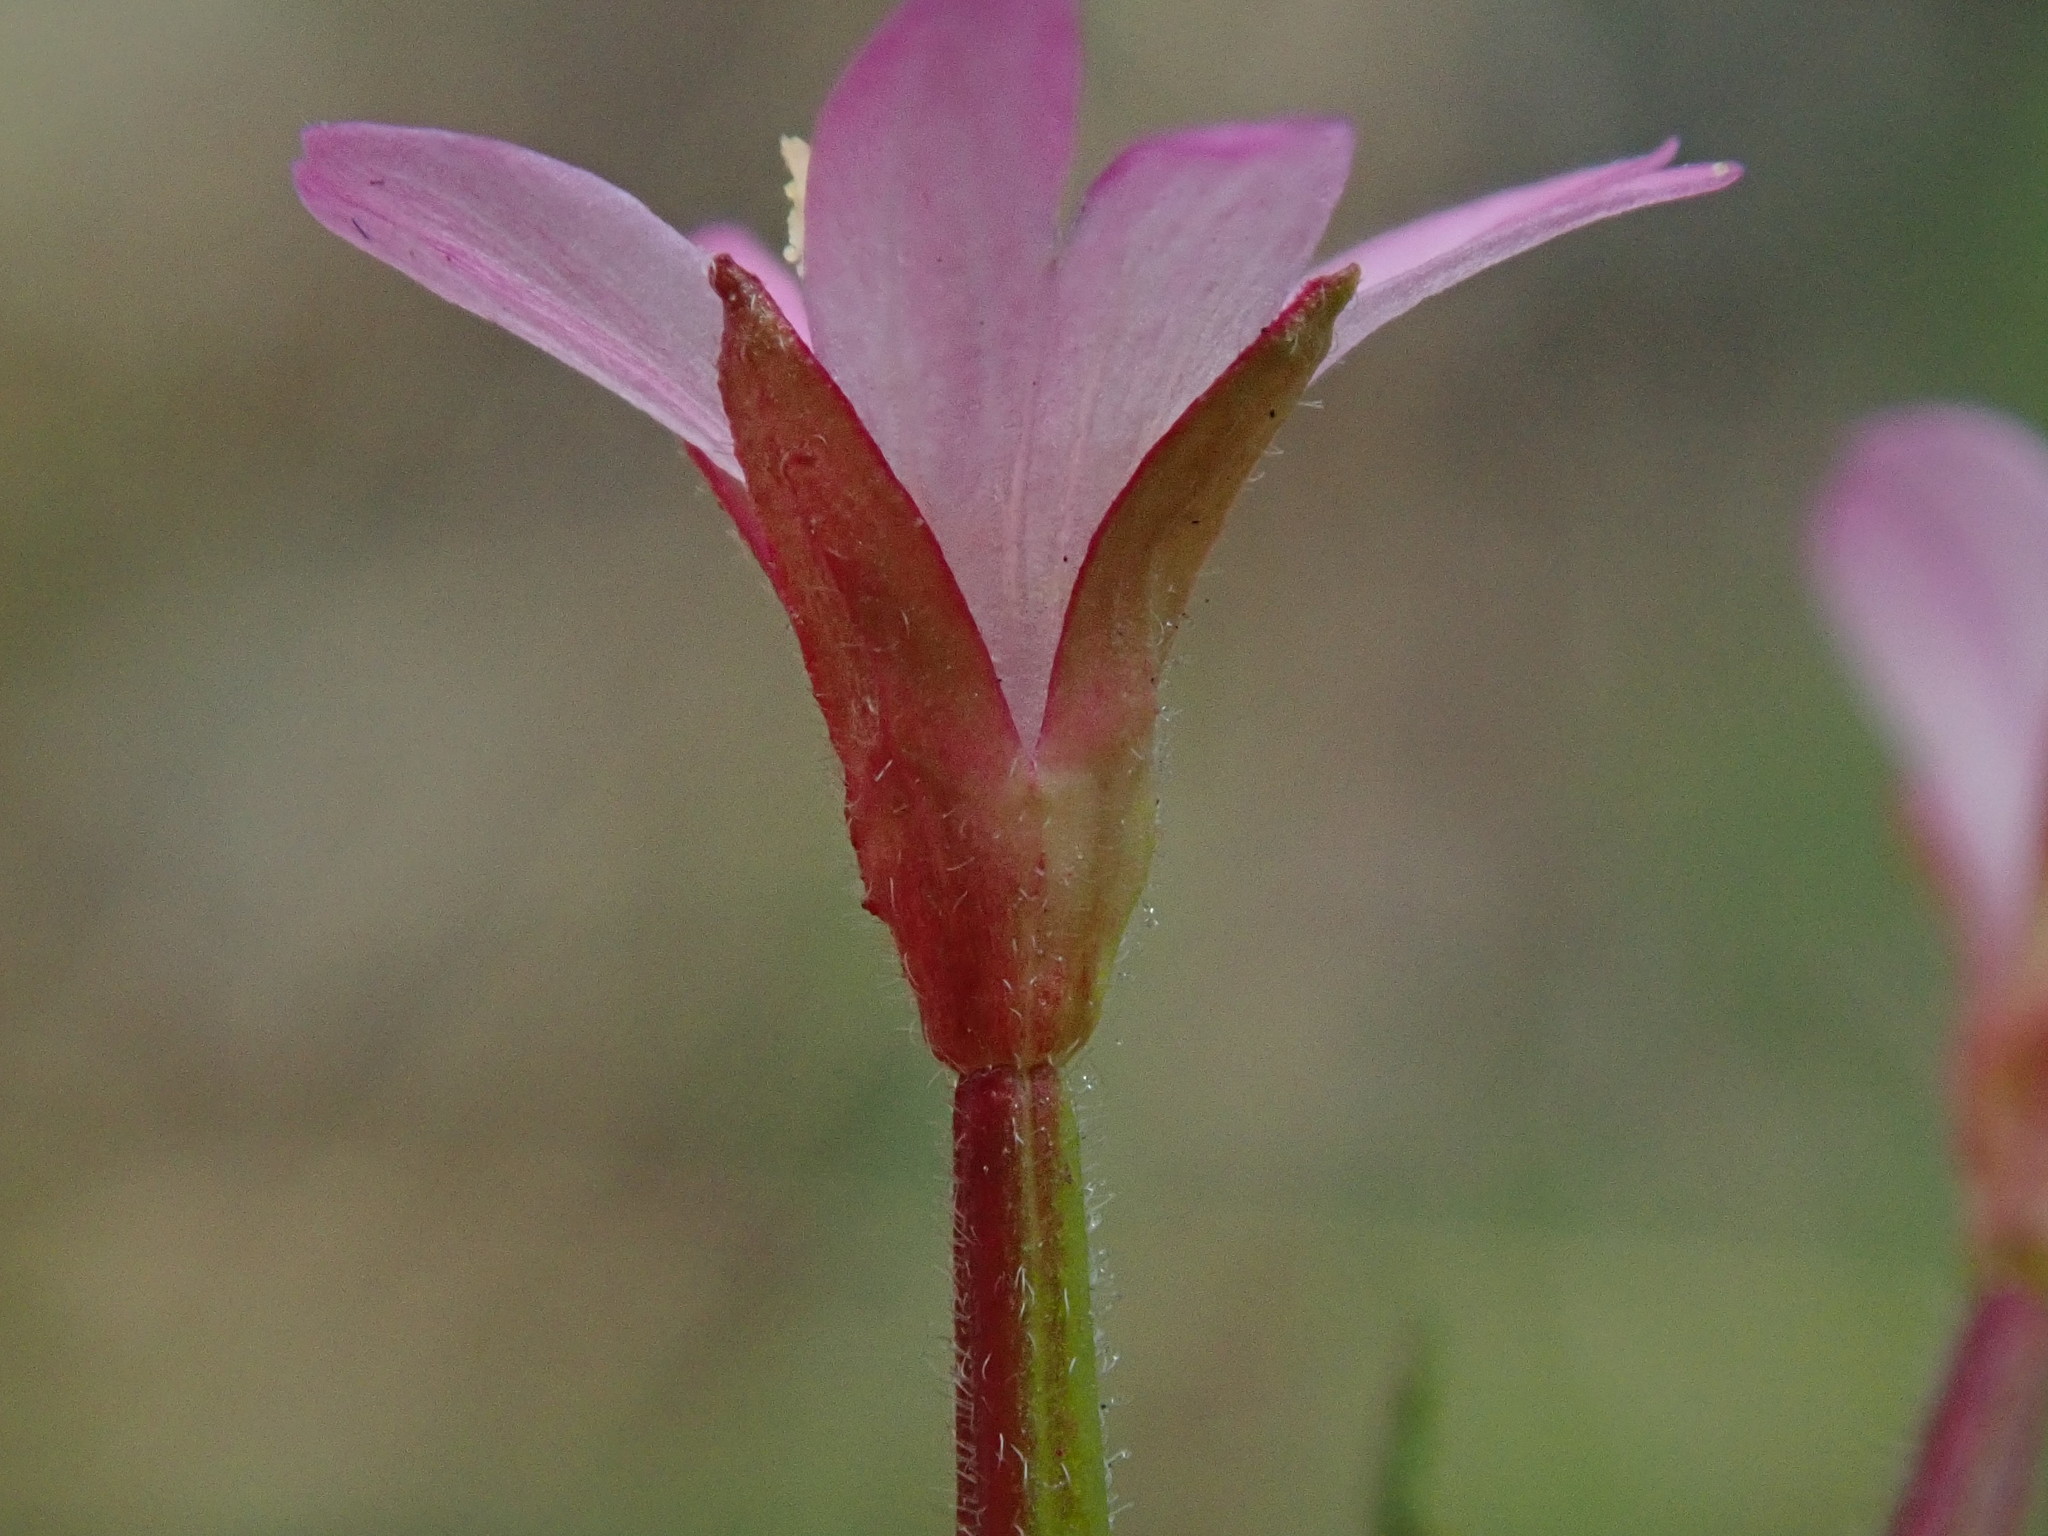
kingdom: Plantae
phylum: Tracheophyta
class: Magnoliopsida
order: Myrtales
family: Onagraceae
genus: Epilobium
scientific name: Epilobium ciliatum
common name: American willowherb
